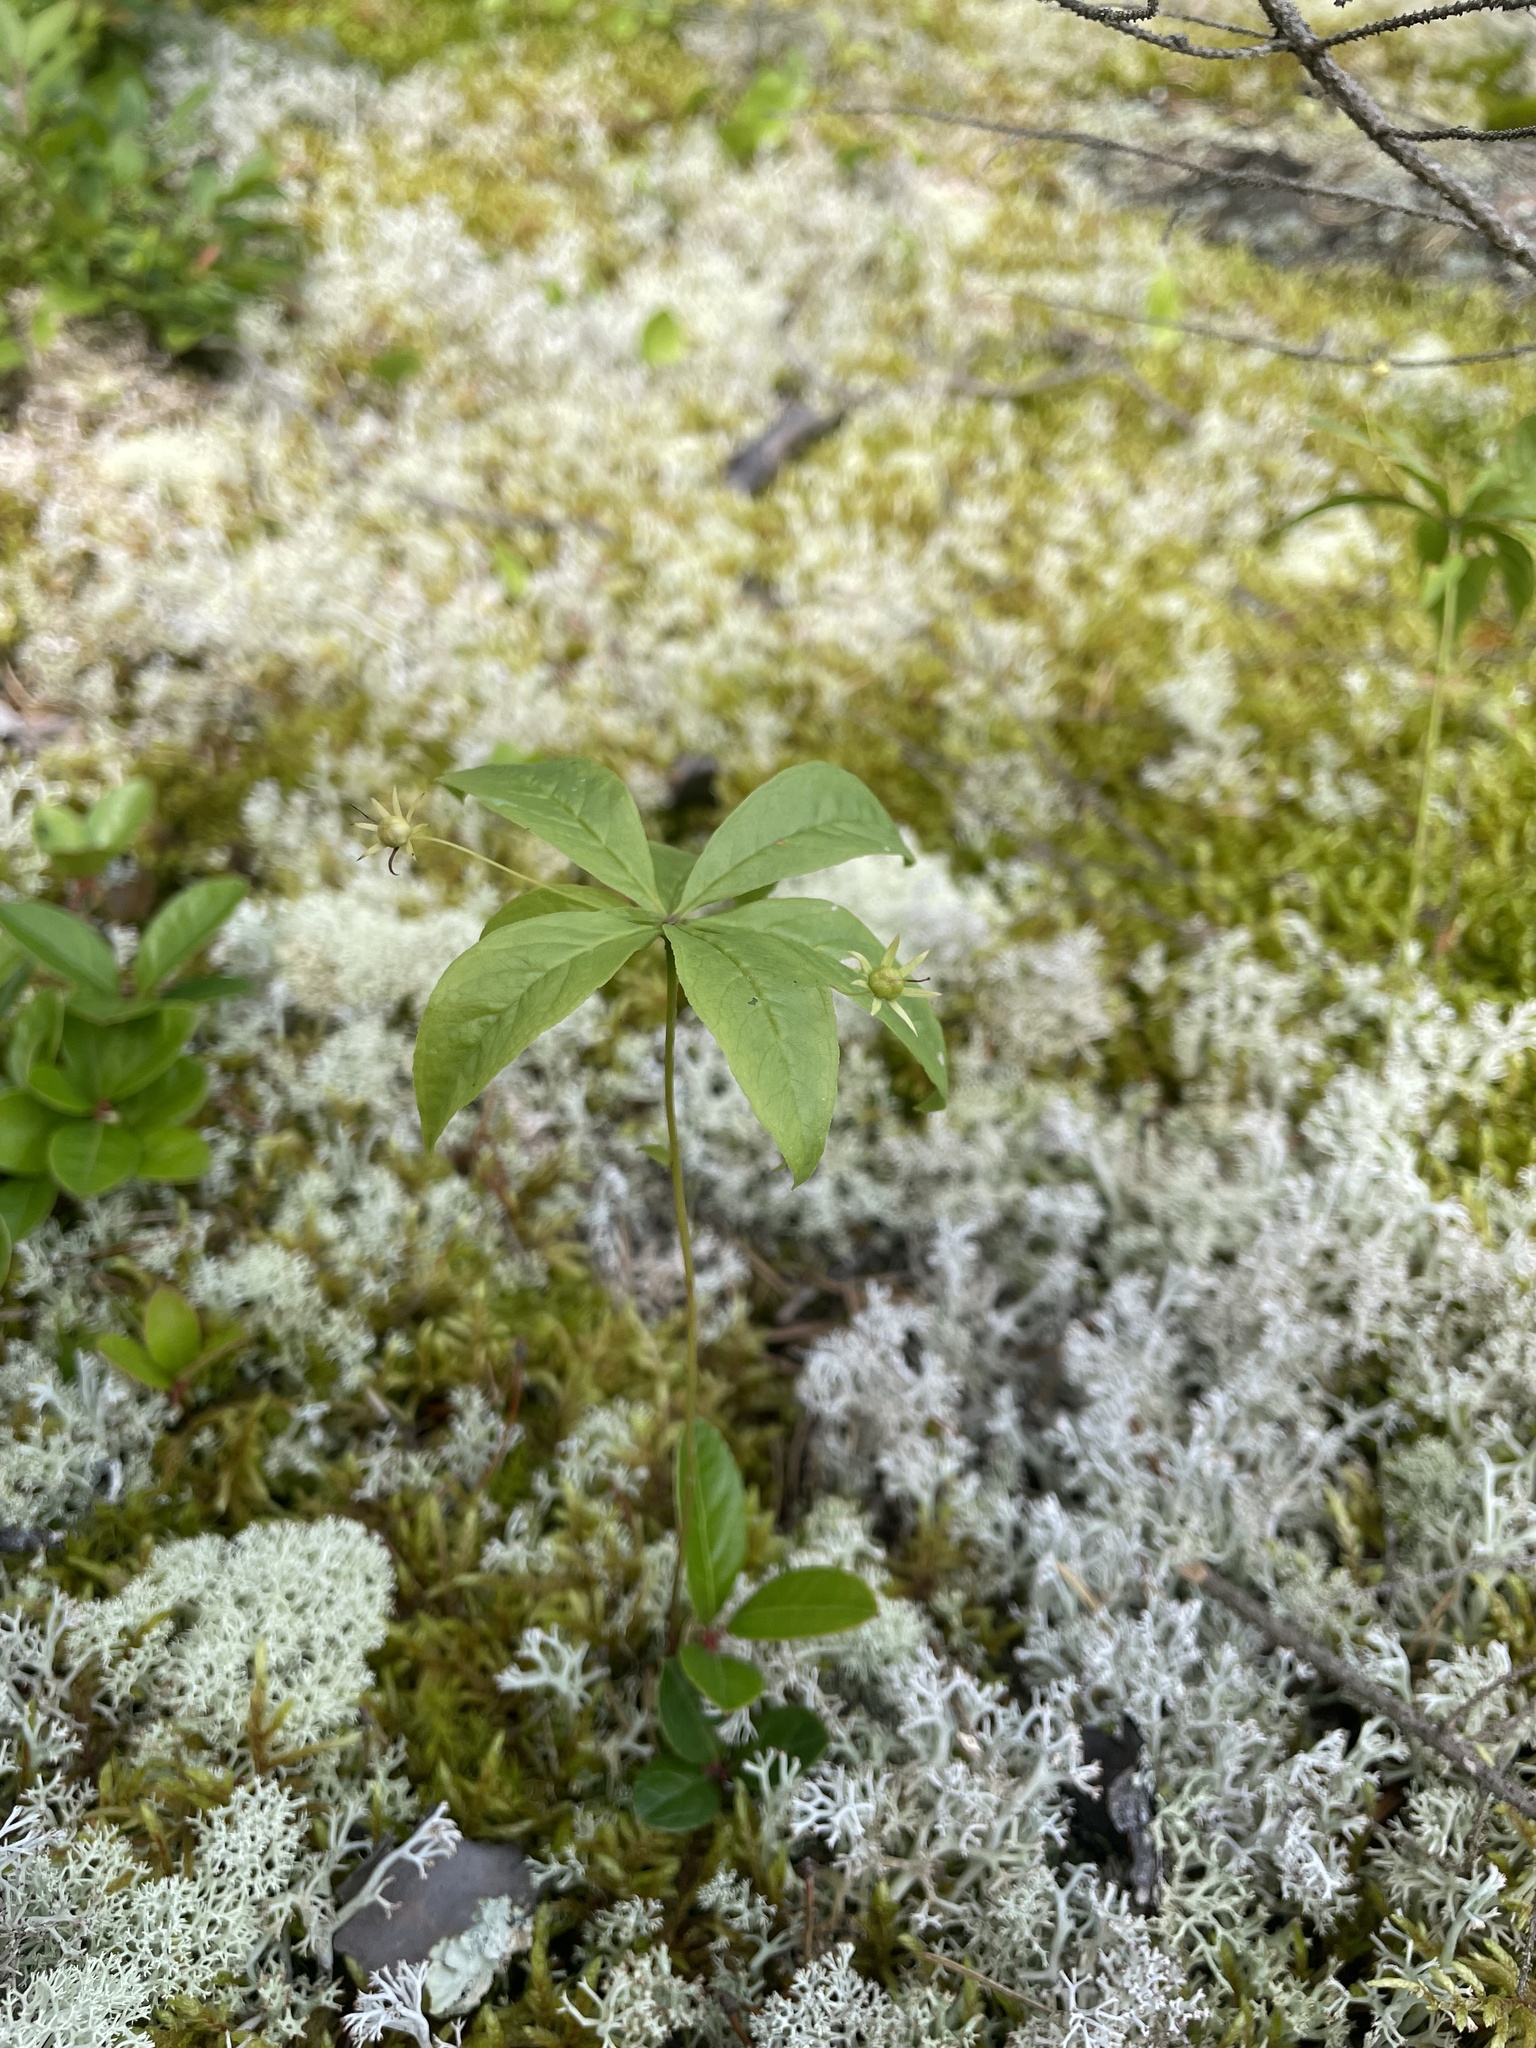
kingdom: Plantae
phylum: Tracheophyta
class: Magnoliopsida
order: Ericales
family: Primulaceae
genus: Lysimachia
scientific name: Lysimachia borealis
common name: American starflower
